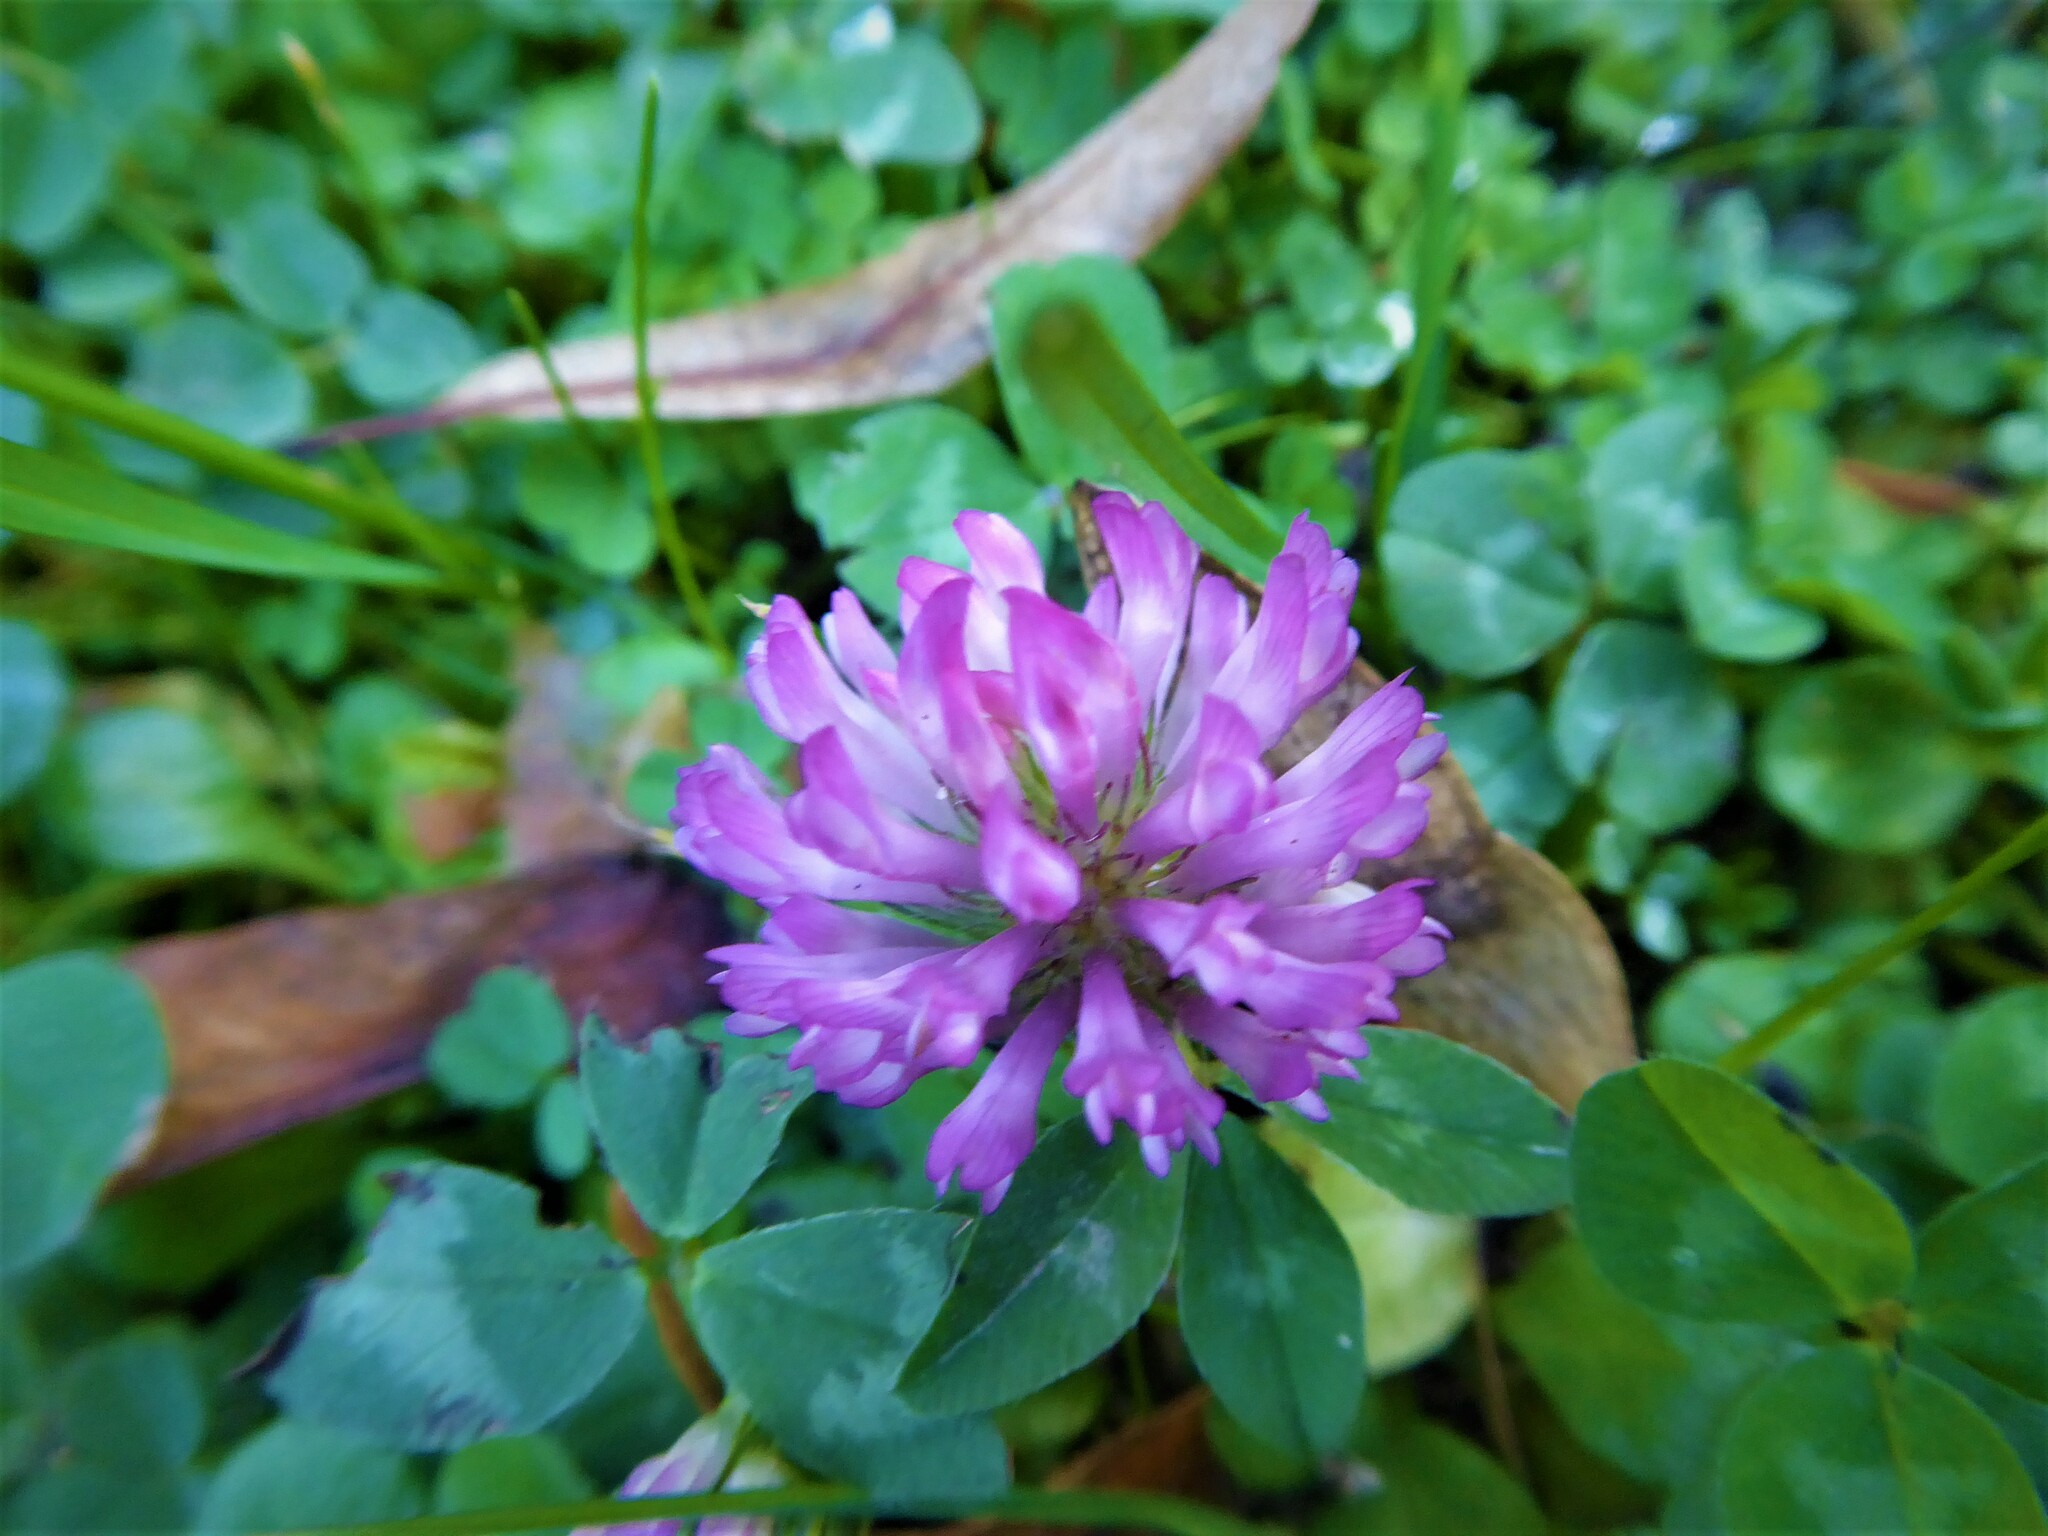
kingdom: Plantae
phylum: Tracheophyta
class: Magnoliopsida
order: Fabales
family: Fabaceae
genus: Trifolium
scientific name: Trifolium pratense
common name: Red clover
